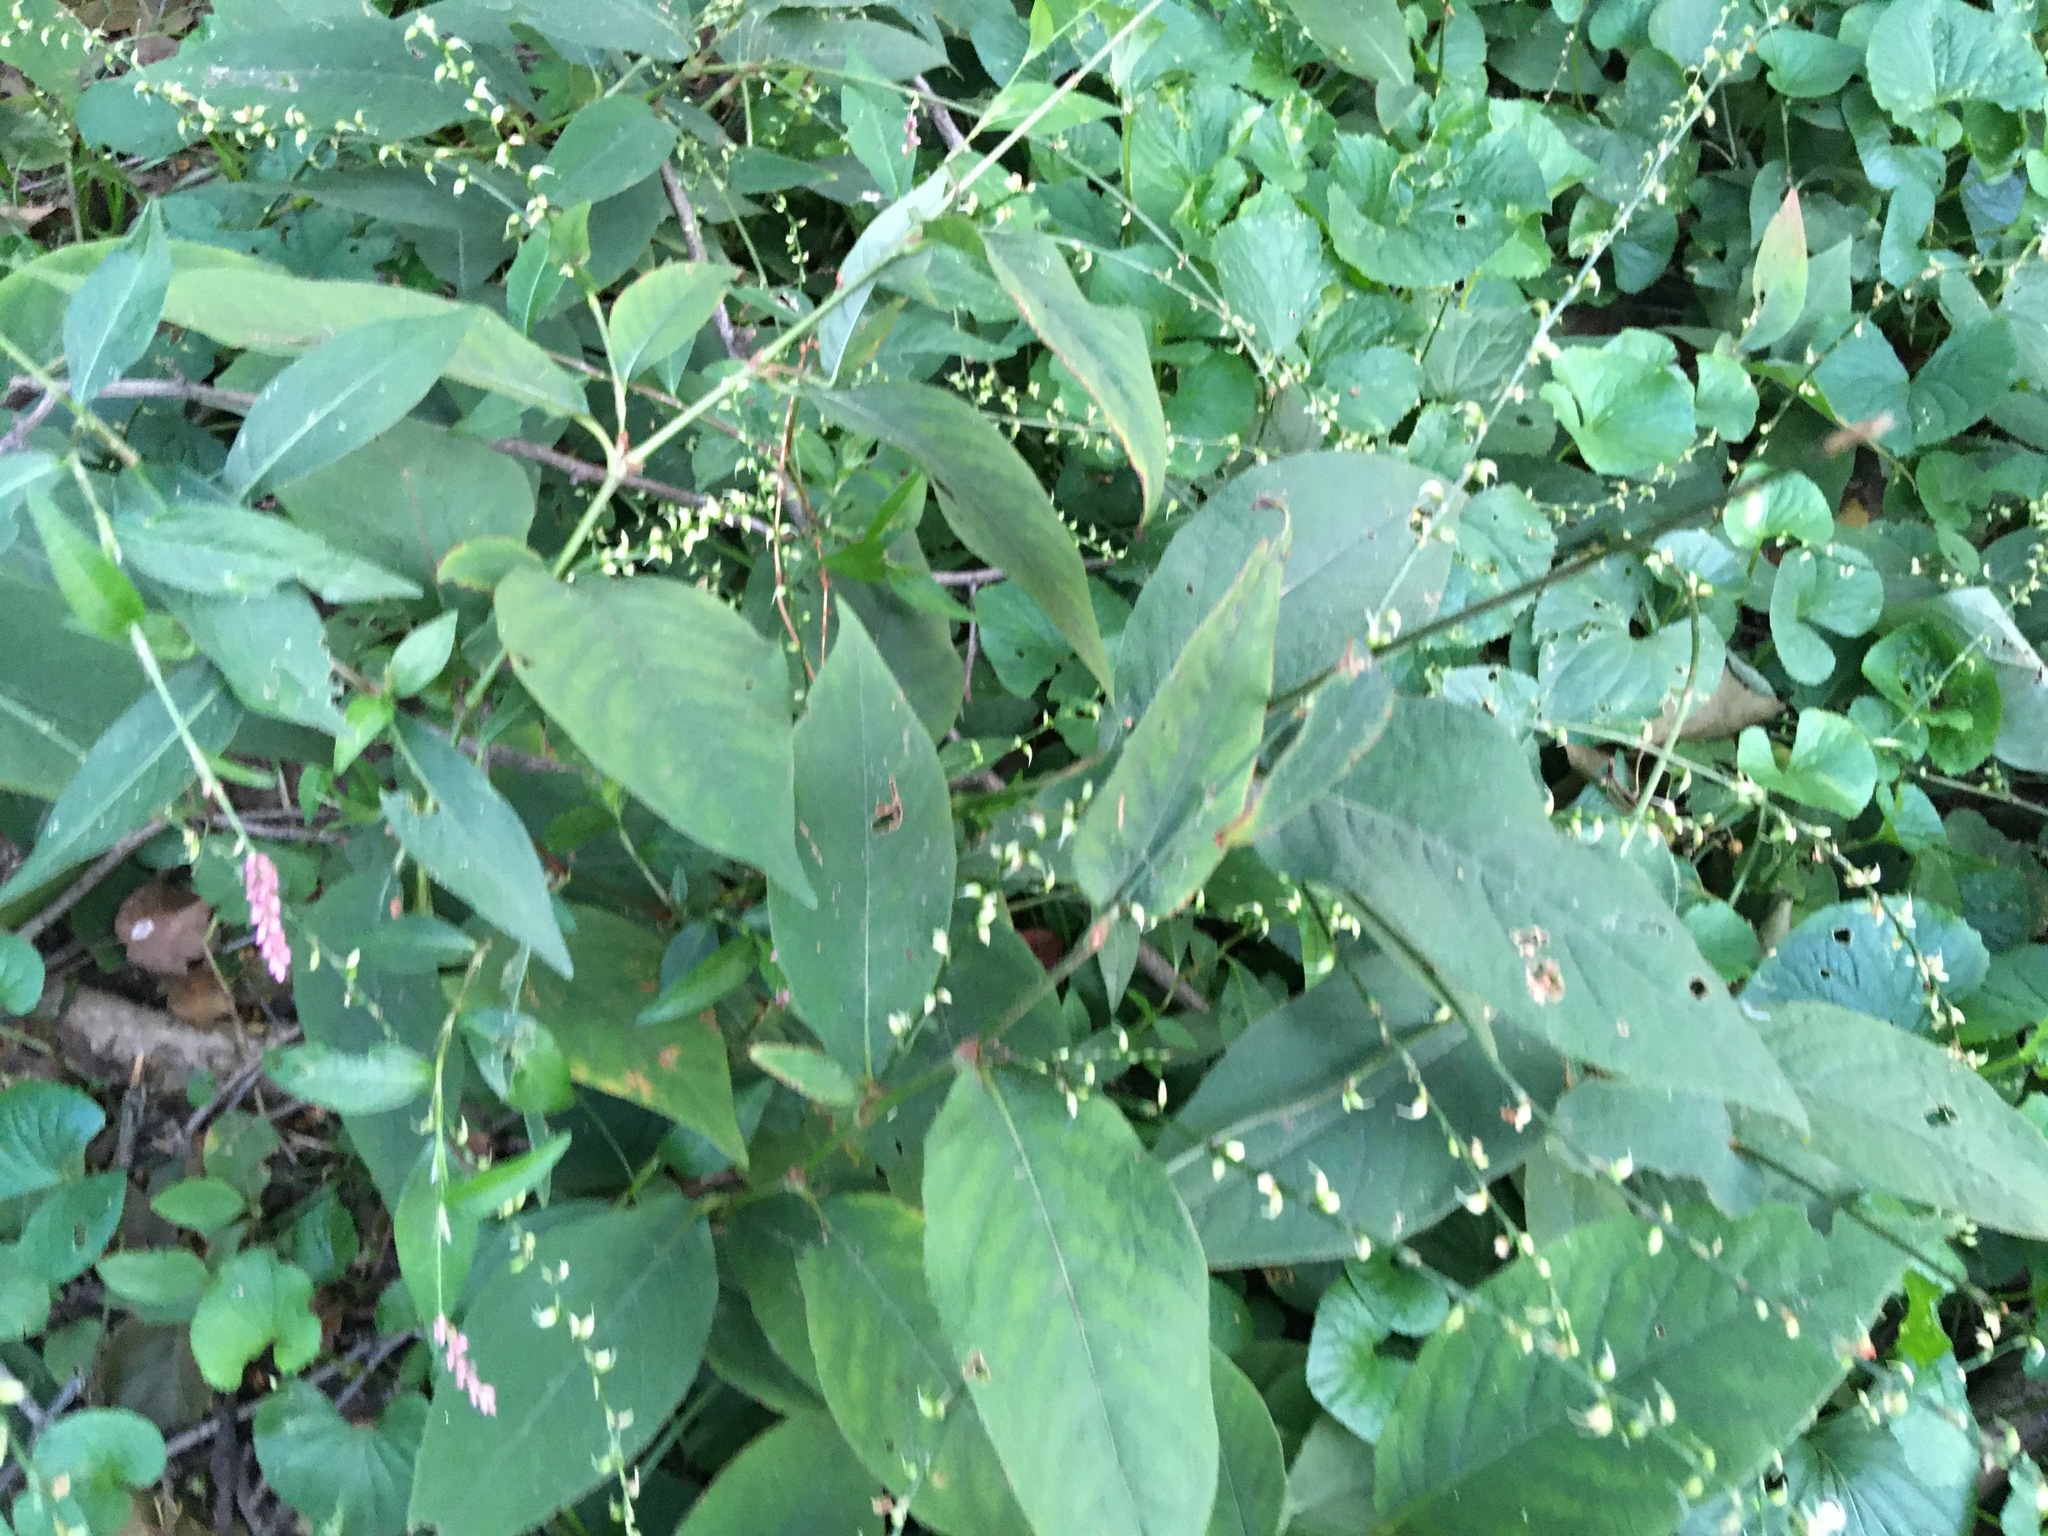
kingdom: Plantae
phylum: Tracheophyta
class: Magnoliopsida
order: Caryophyllales
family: Polygonaceae
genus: Persicaria
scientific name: Persicaria virginiana
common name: Jumpseed
